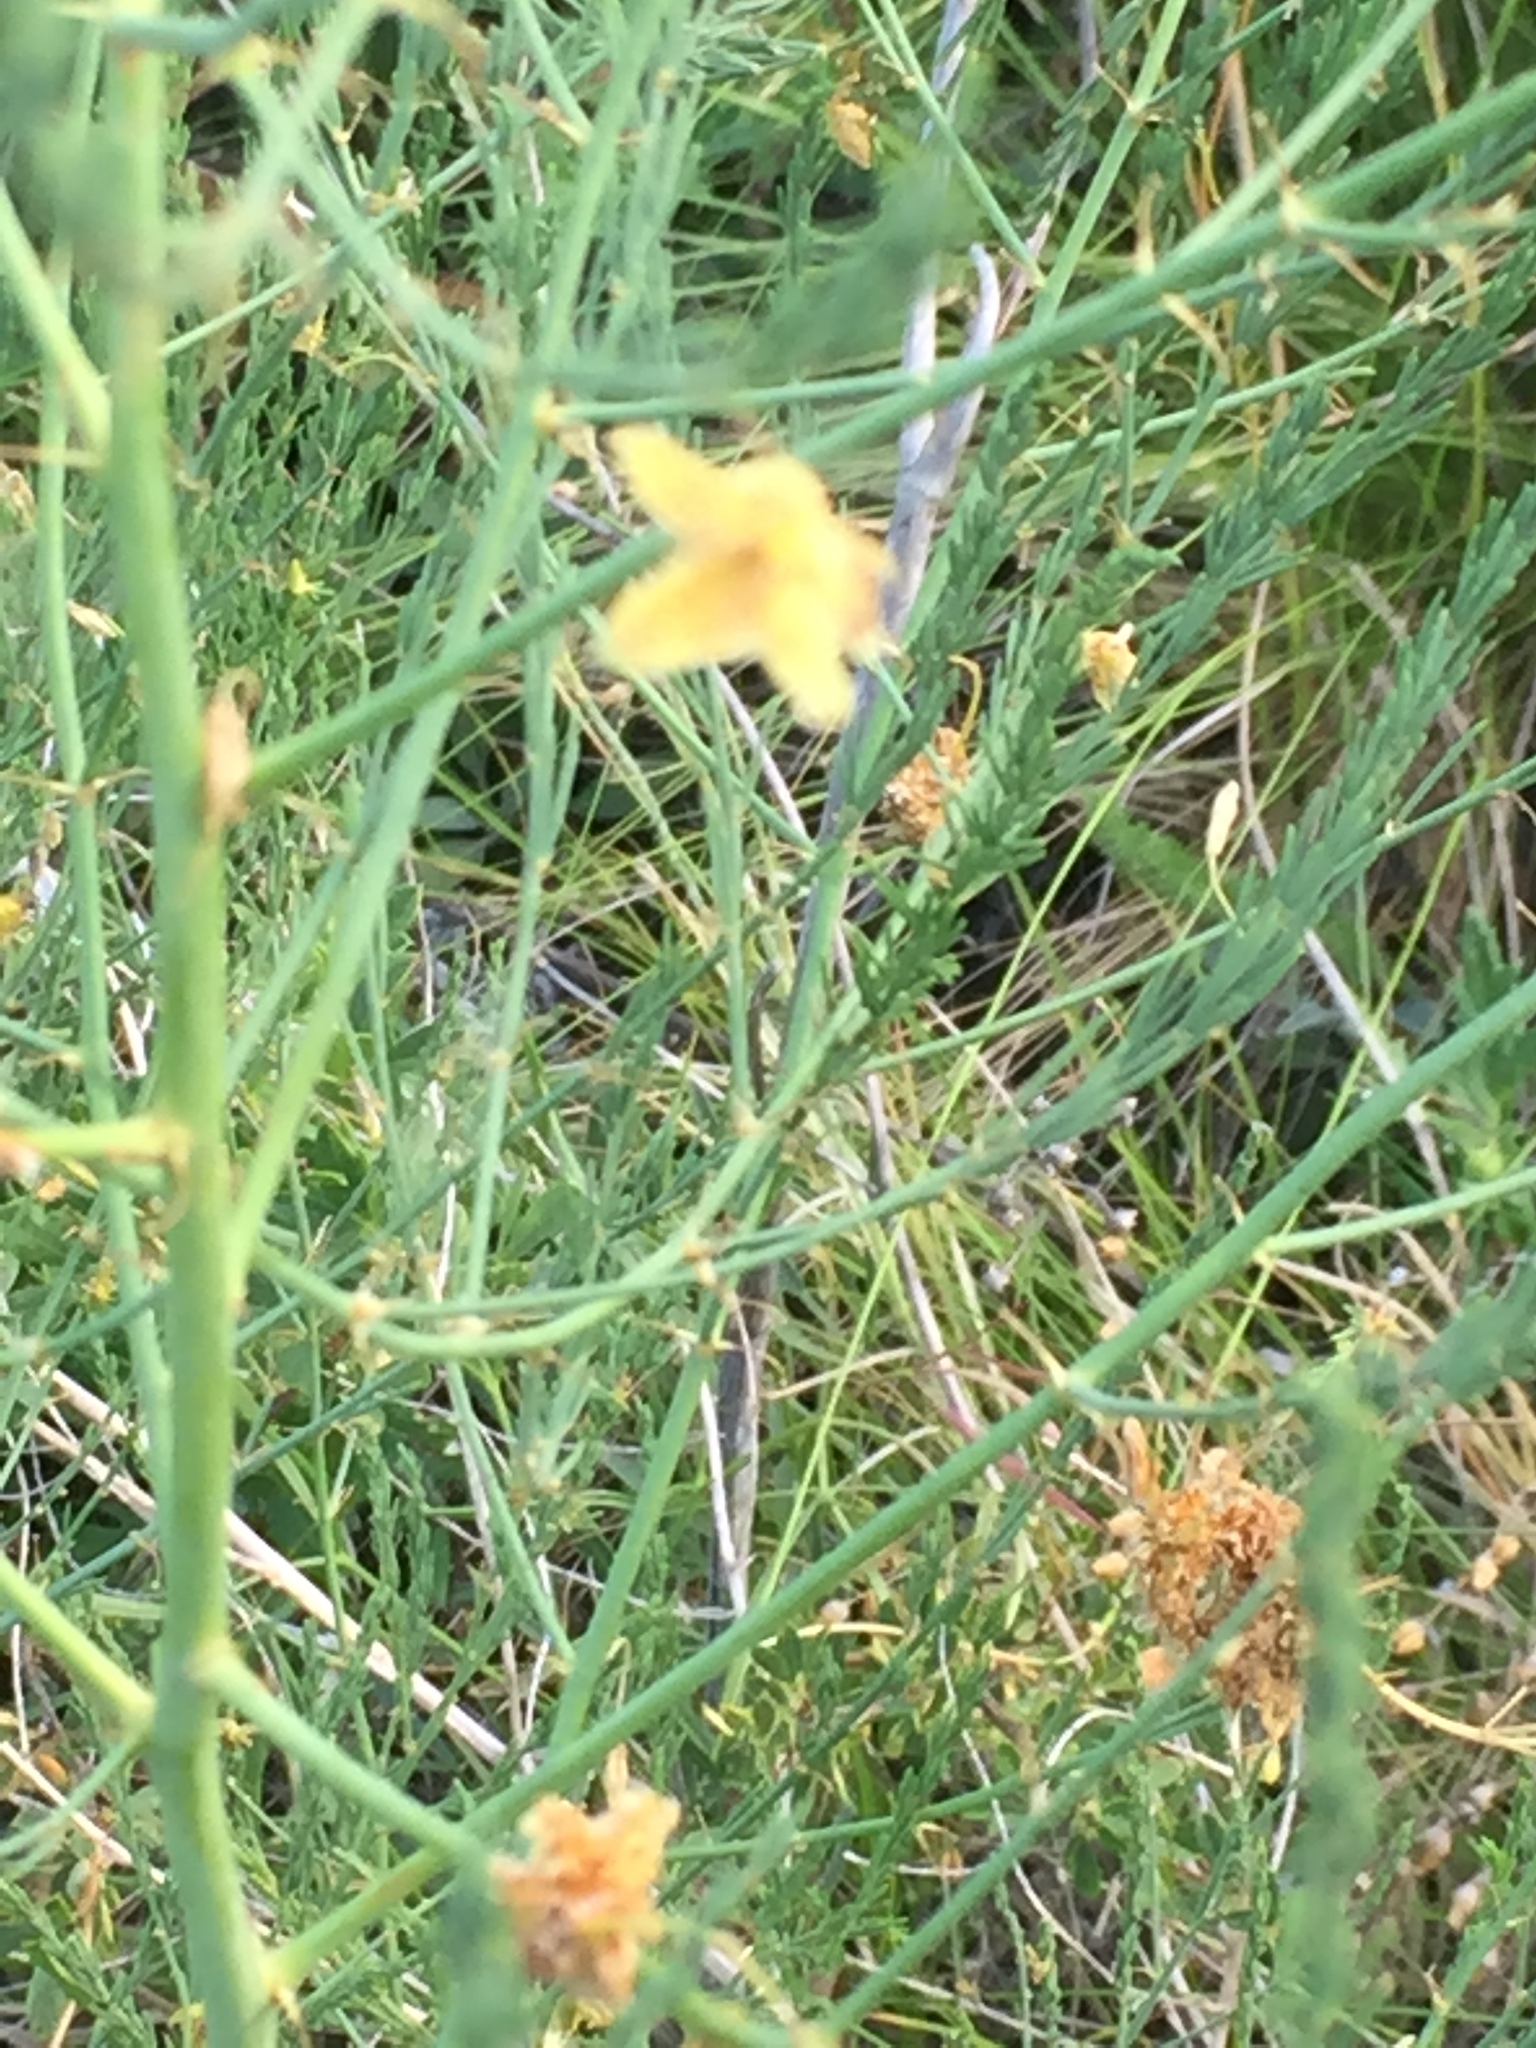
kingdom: Plantae
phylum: Tracheophyta
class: Liliopsida
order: Asparagales
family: Asparagaceae
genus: Asparagus
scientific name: Asparagus officinalis
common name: Garden asparagus
